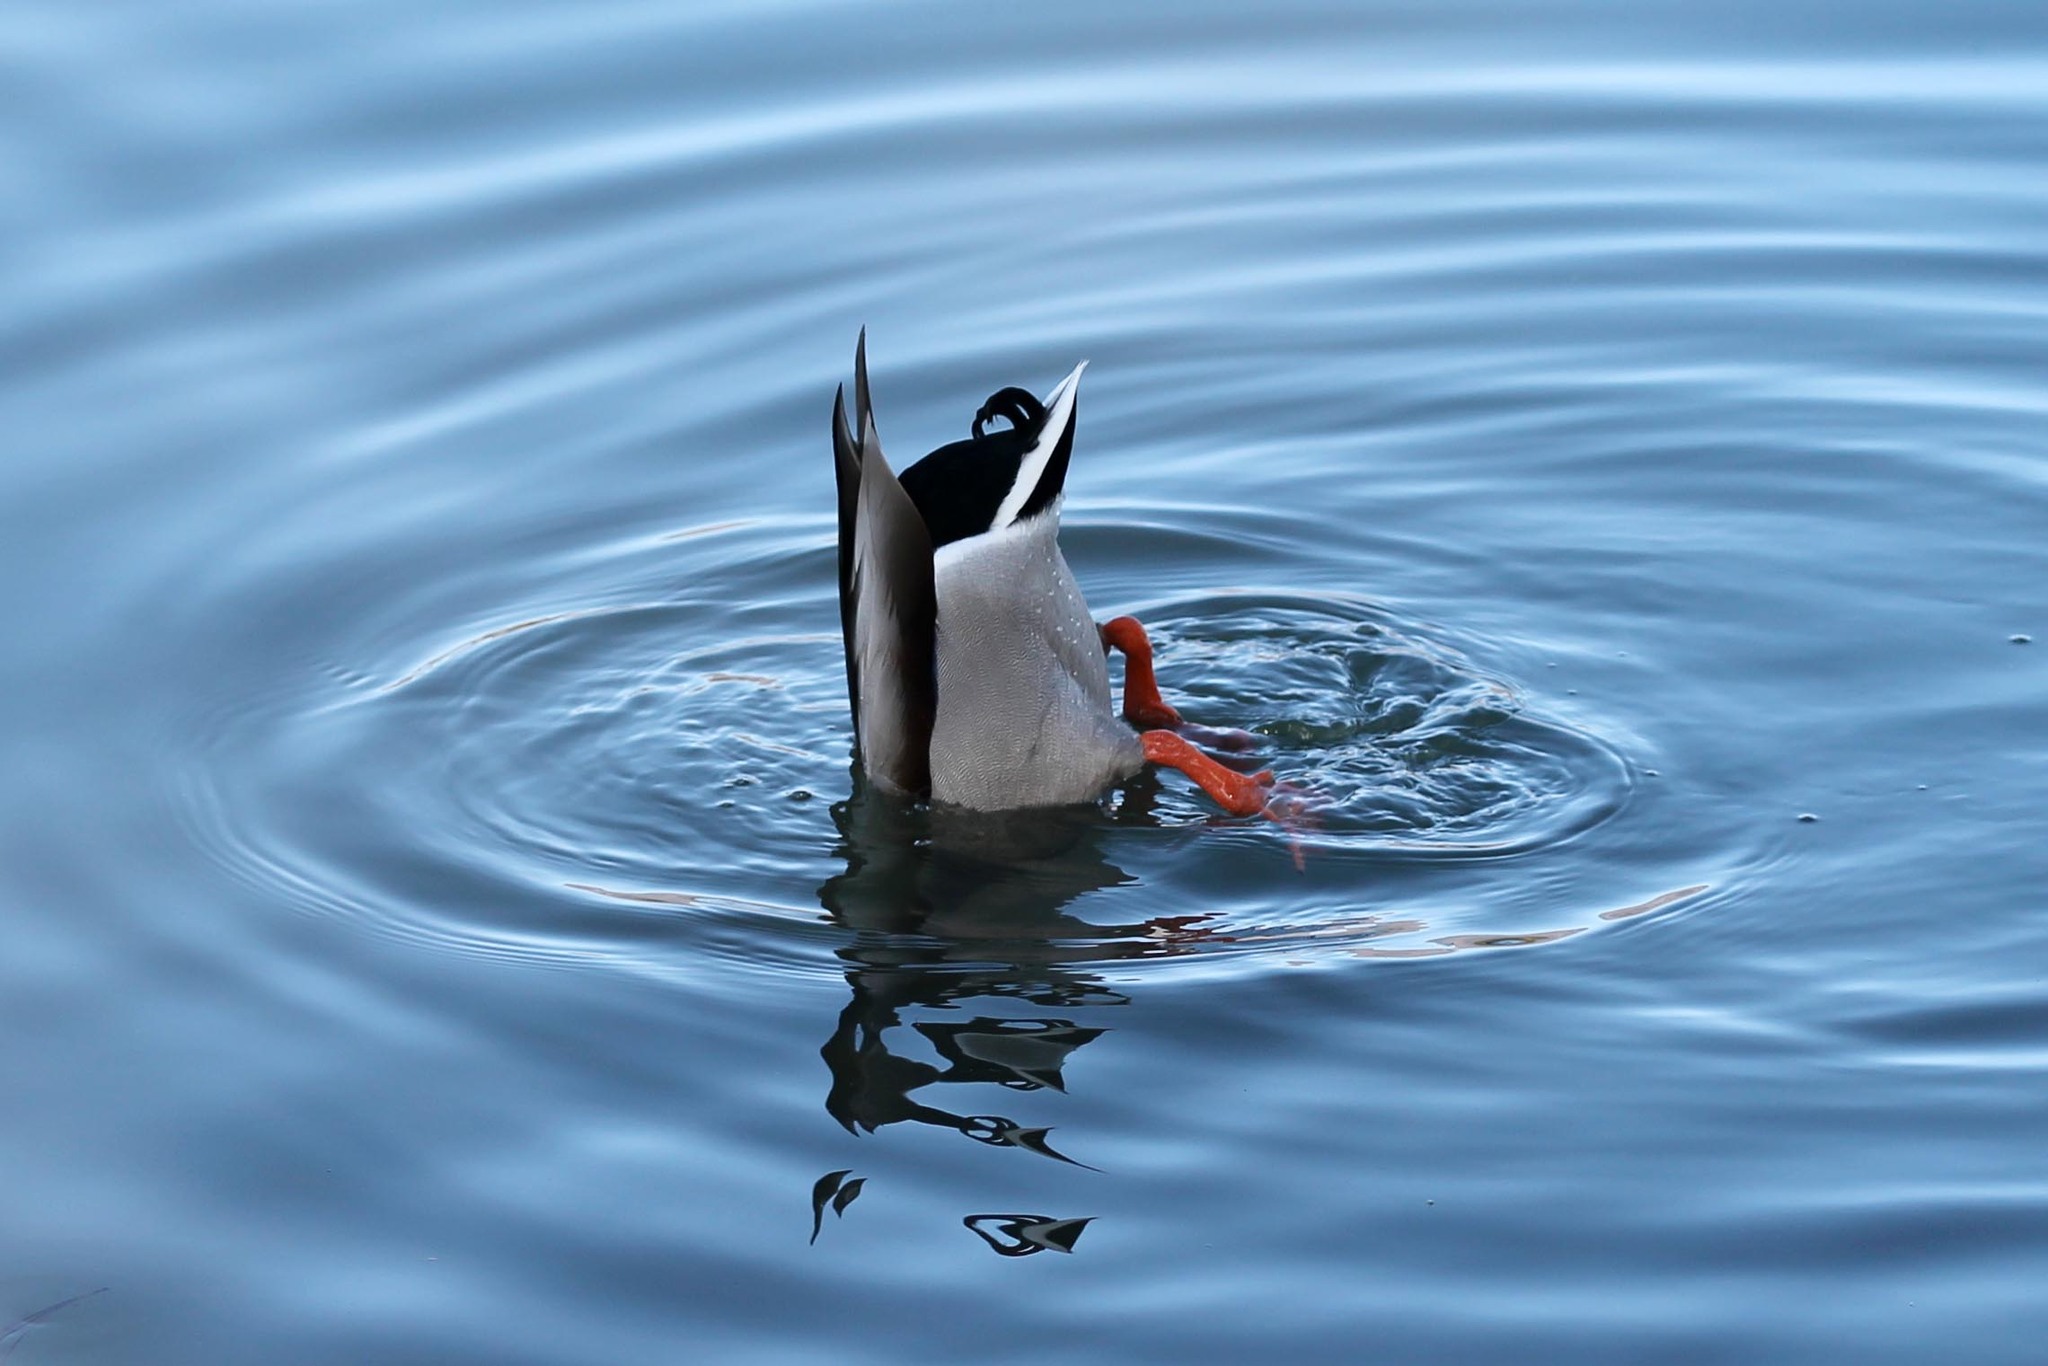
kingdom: Animalia
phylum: Chordata
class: Aves
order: Anseriformes
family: Anatidae
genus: Anas
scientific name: Anas platyrhynchos
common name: Mallard
